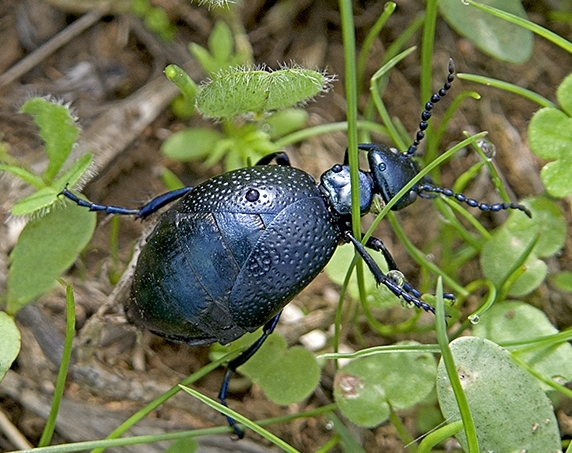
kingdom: Animalia
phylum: Arthropoda
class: Insecta
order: Coleoptera
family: Meloidae
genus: Meloe
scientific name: Meloe autumnalis
